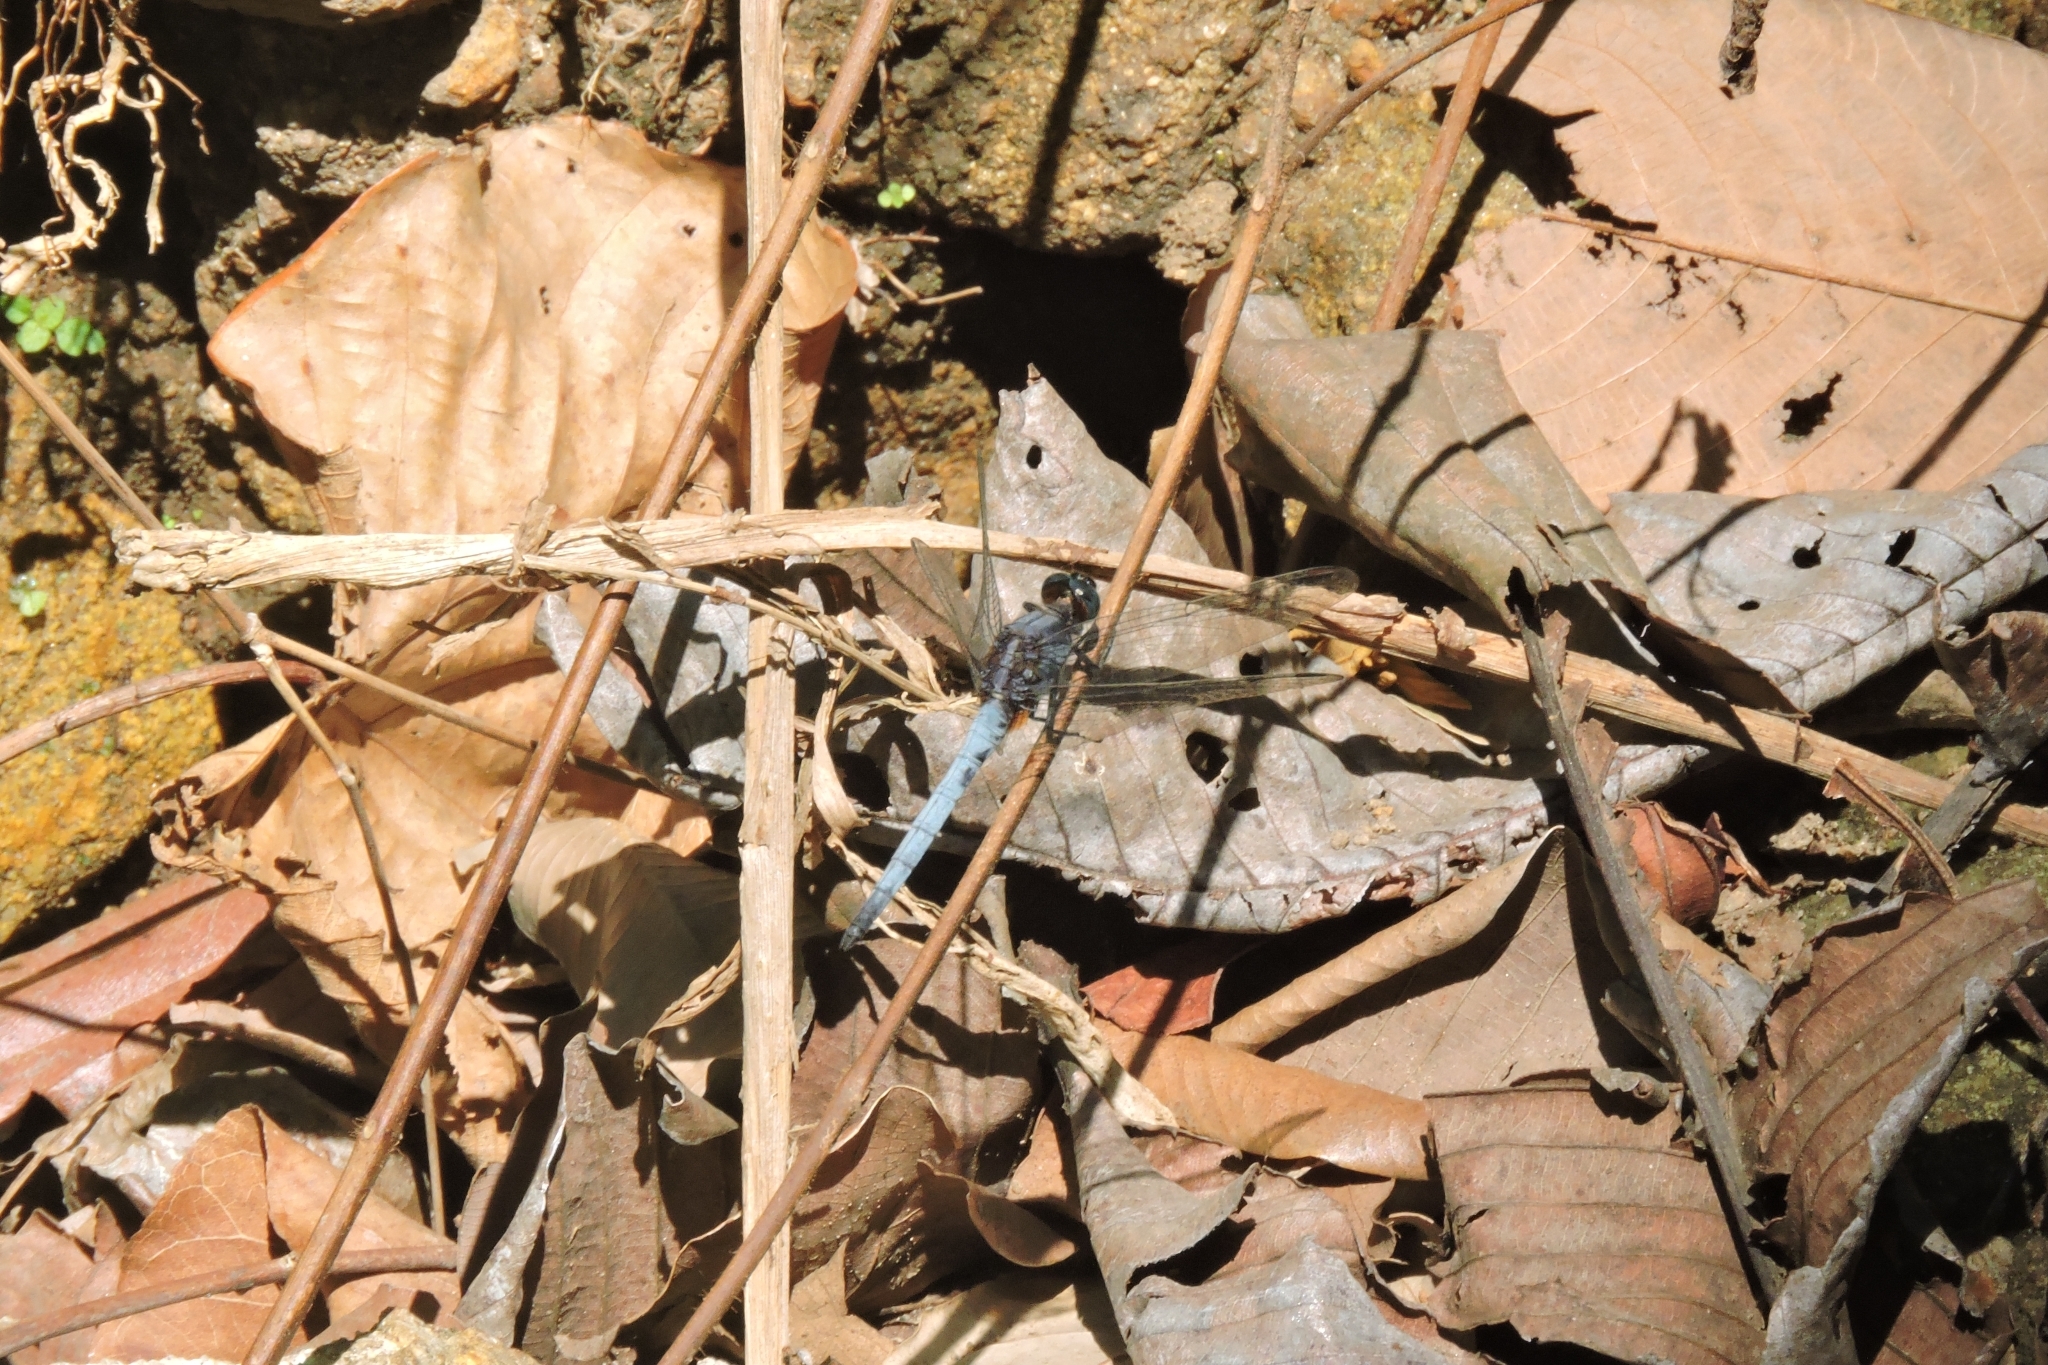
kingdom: Animalia
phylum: Arthropoda
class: Insecta
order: Odonata
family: Libellulidae
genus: Orthetrum
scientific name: Orthetrum glaucum
